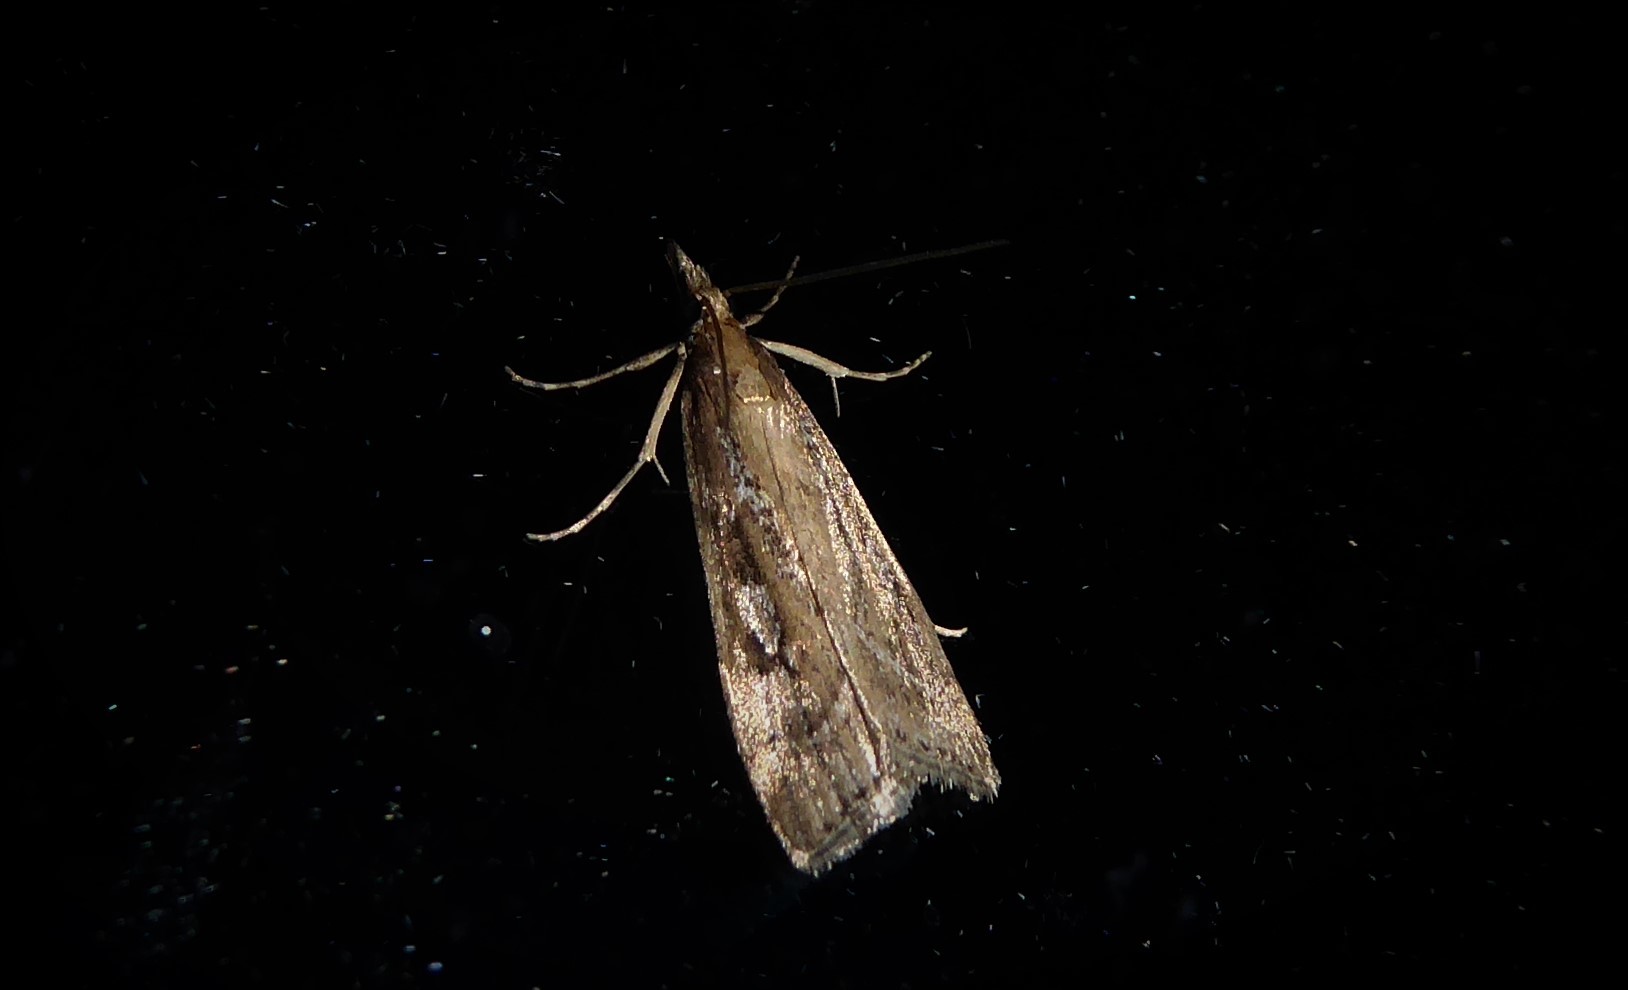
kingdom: Animalia
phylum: Arthropoda
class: Insecta
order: Lepidoptera
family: Crambidae
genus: Eudonia
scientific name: Eudonia octophora
